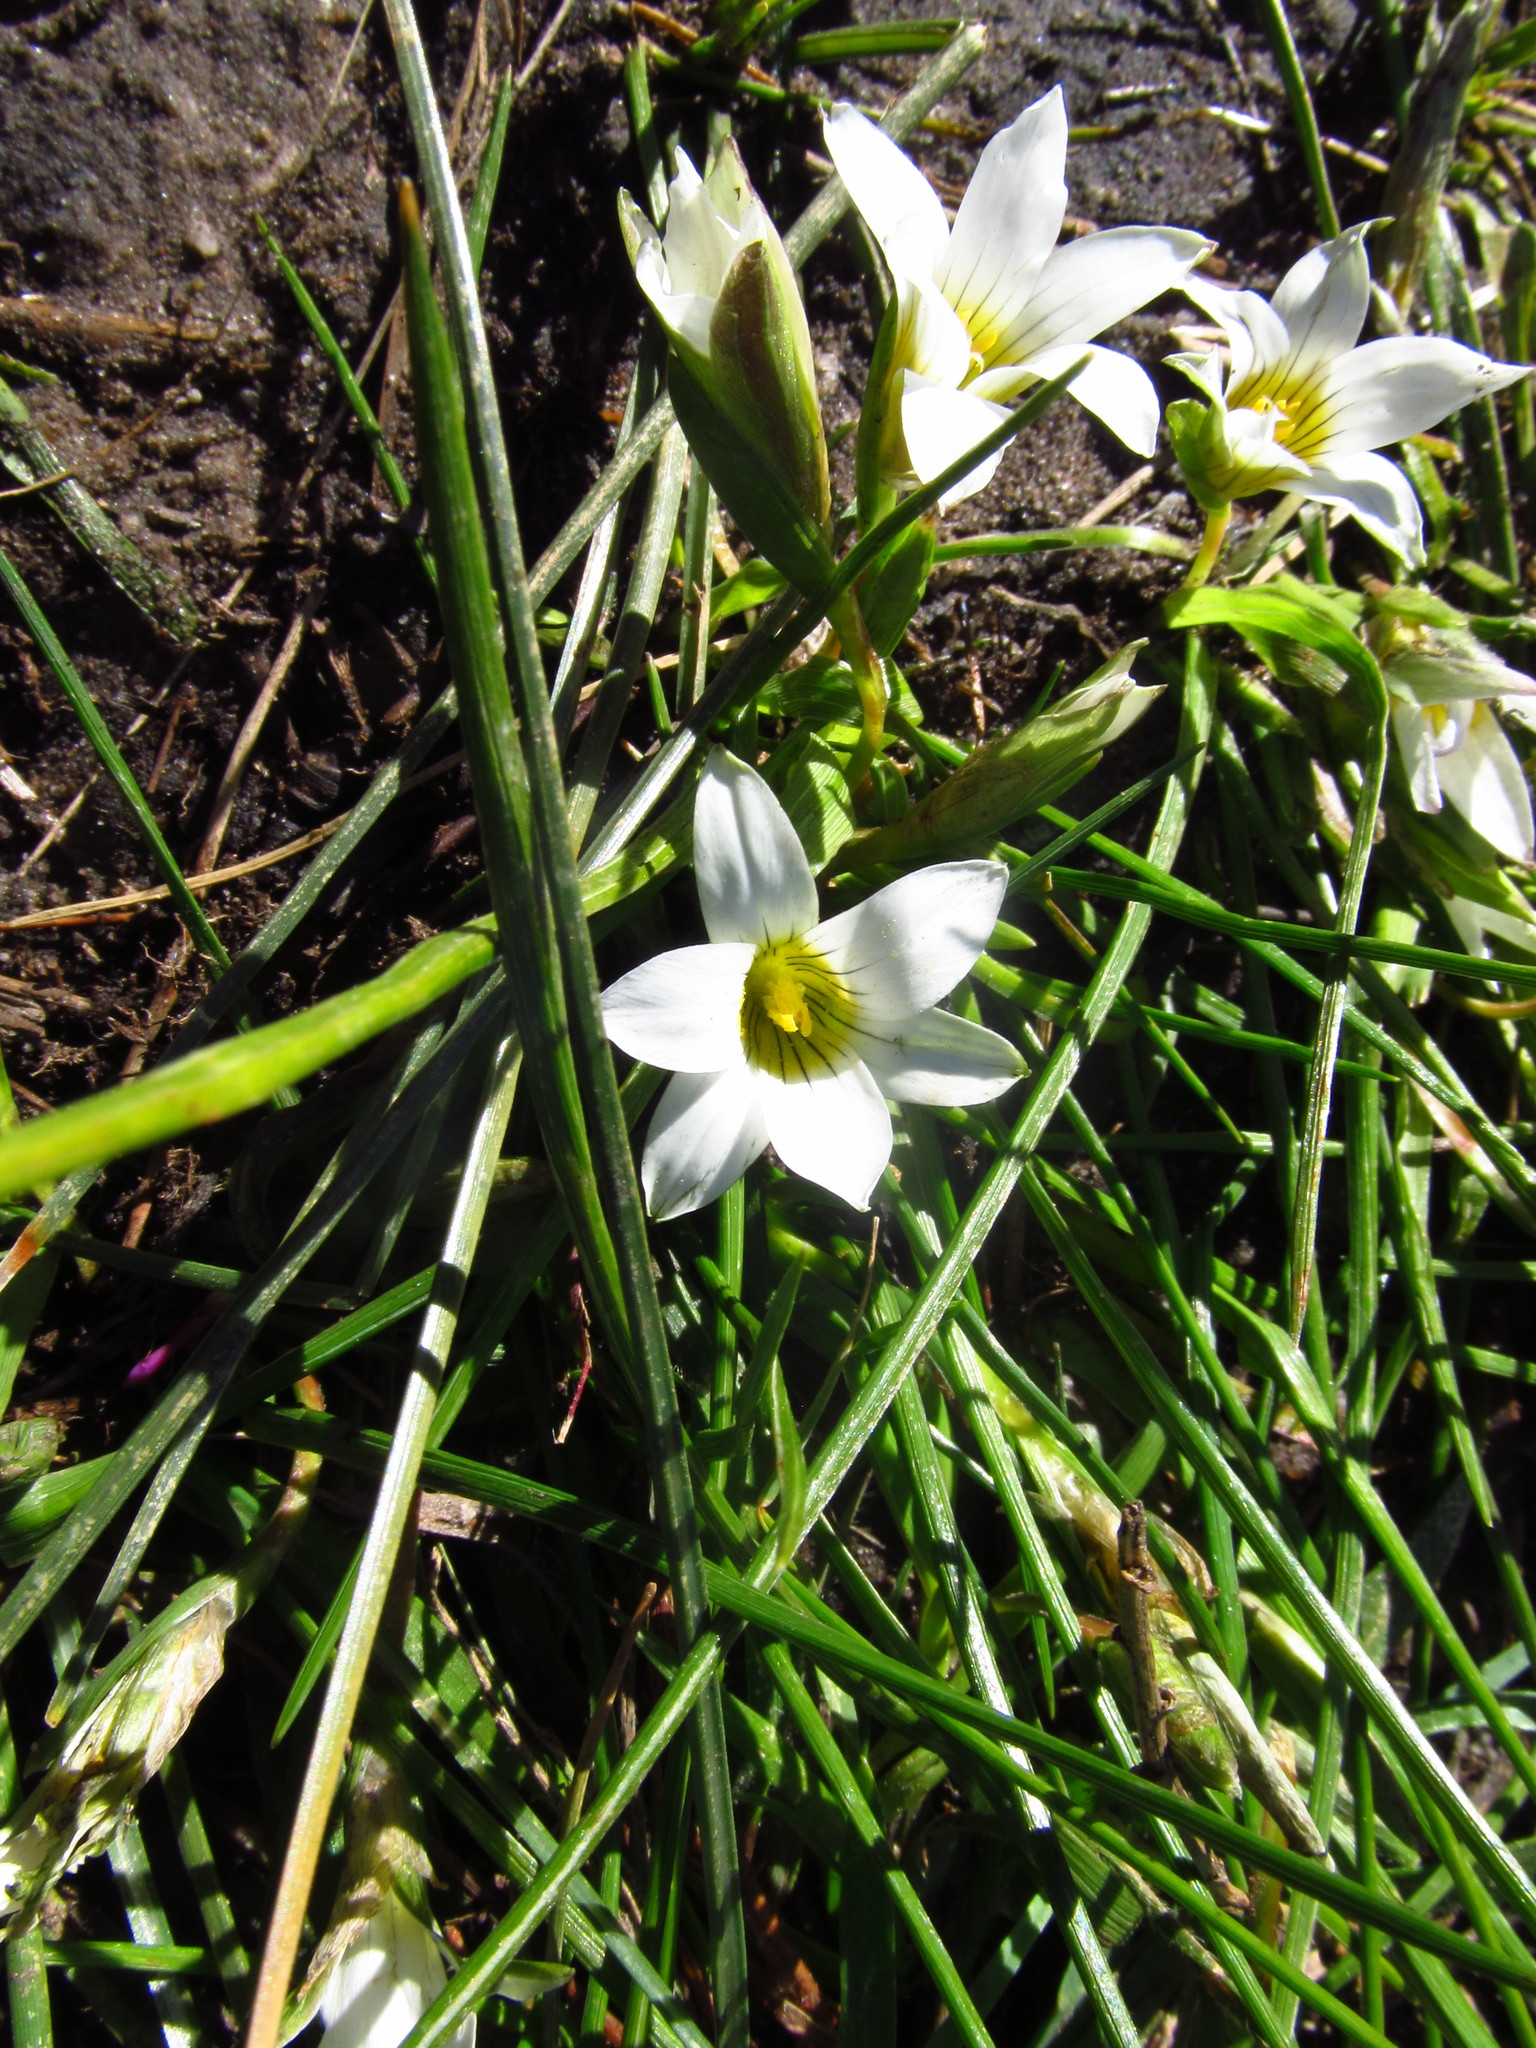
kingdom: Plantae
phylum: Tracheophyta
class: Liliopsida
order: Asparagales
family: Iridaceae
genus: Romulea
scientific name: Romulea flava
